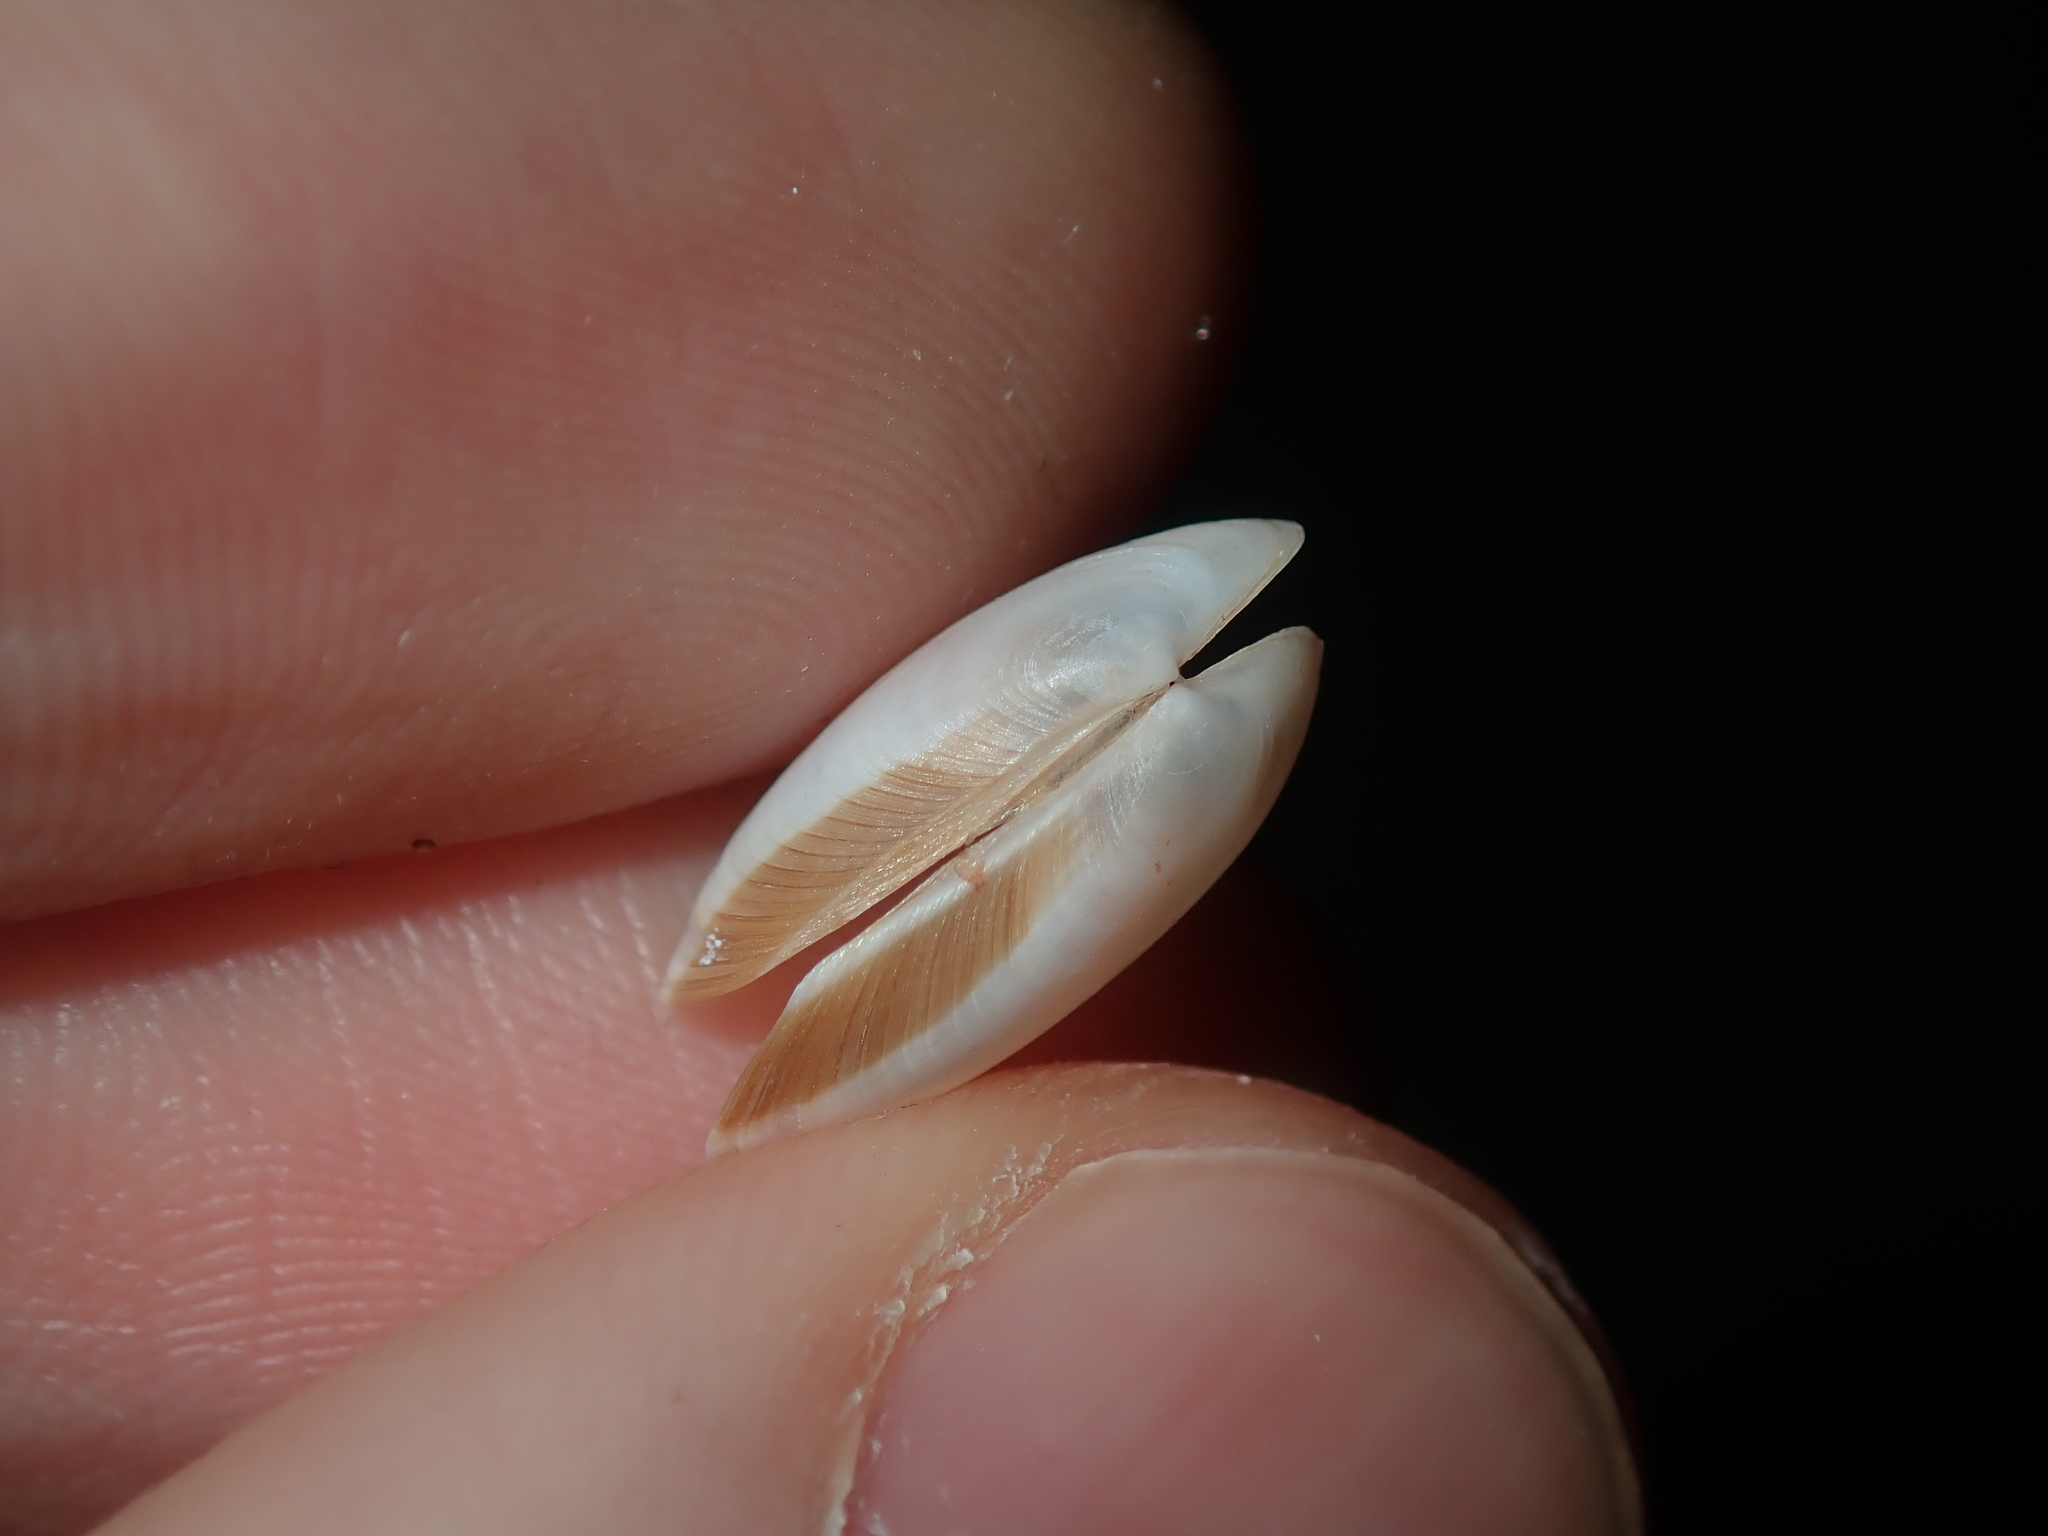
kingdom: Animalia
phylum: Mollusca
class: Bivalvia
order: Venerida
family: Veneridae
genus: Venerupis
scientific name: Venerupis anomala
